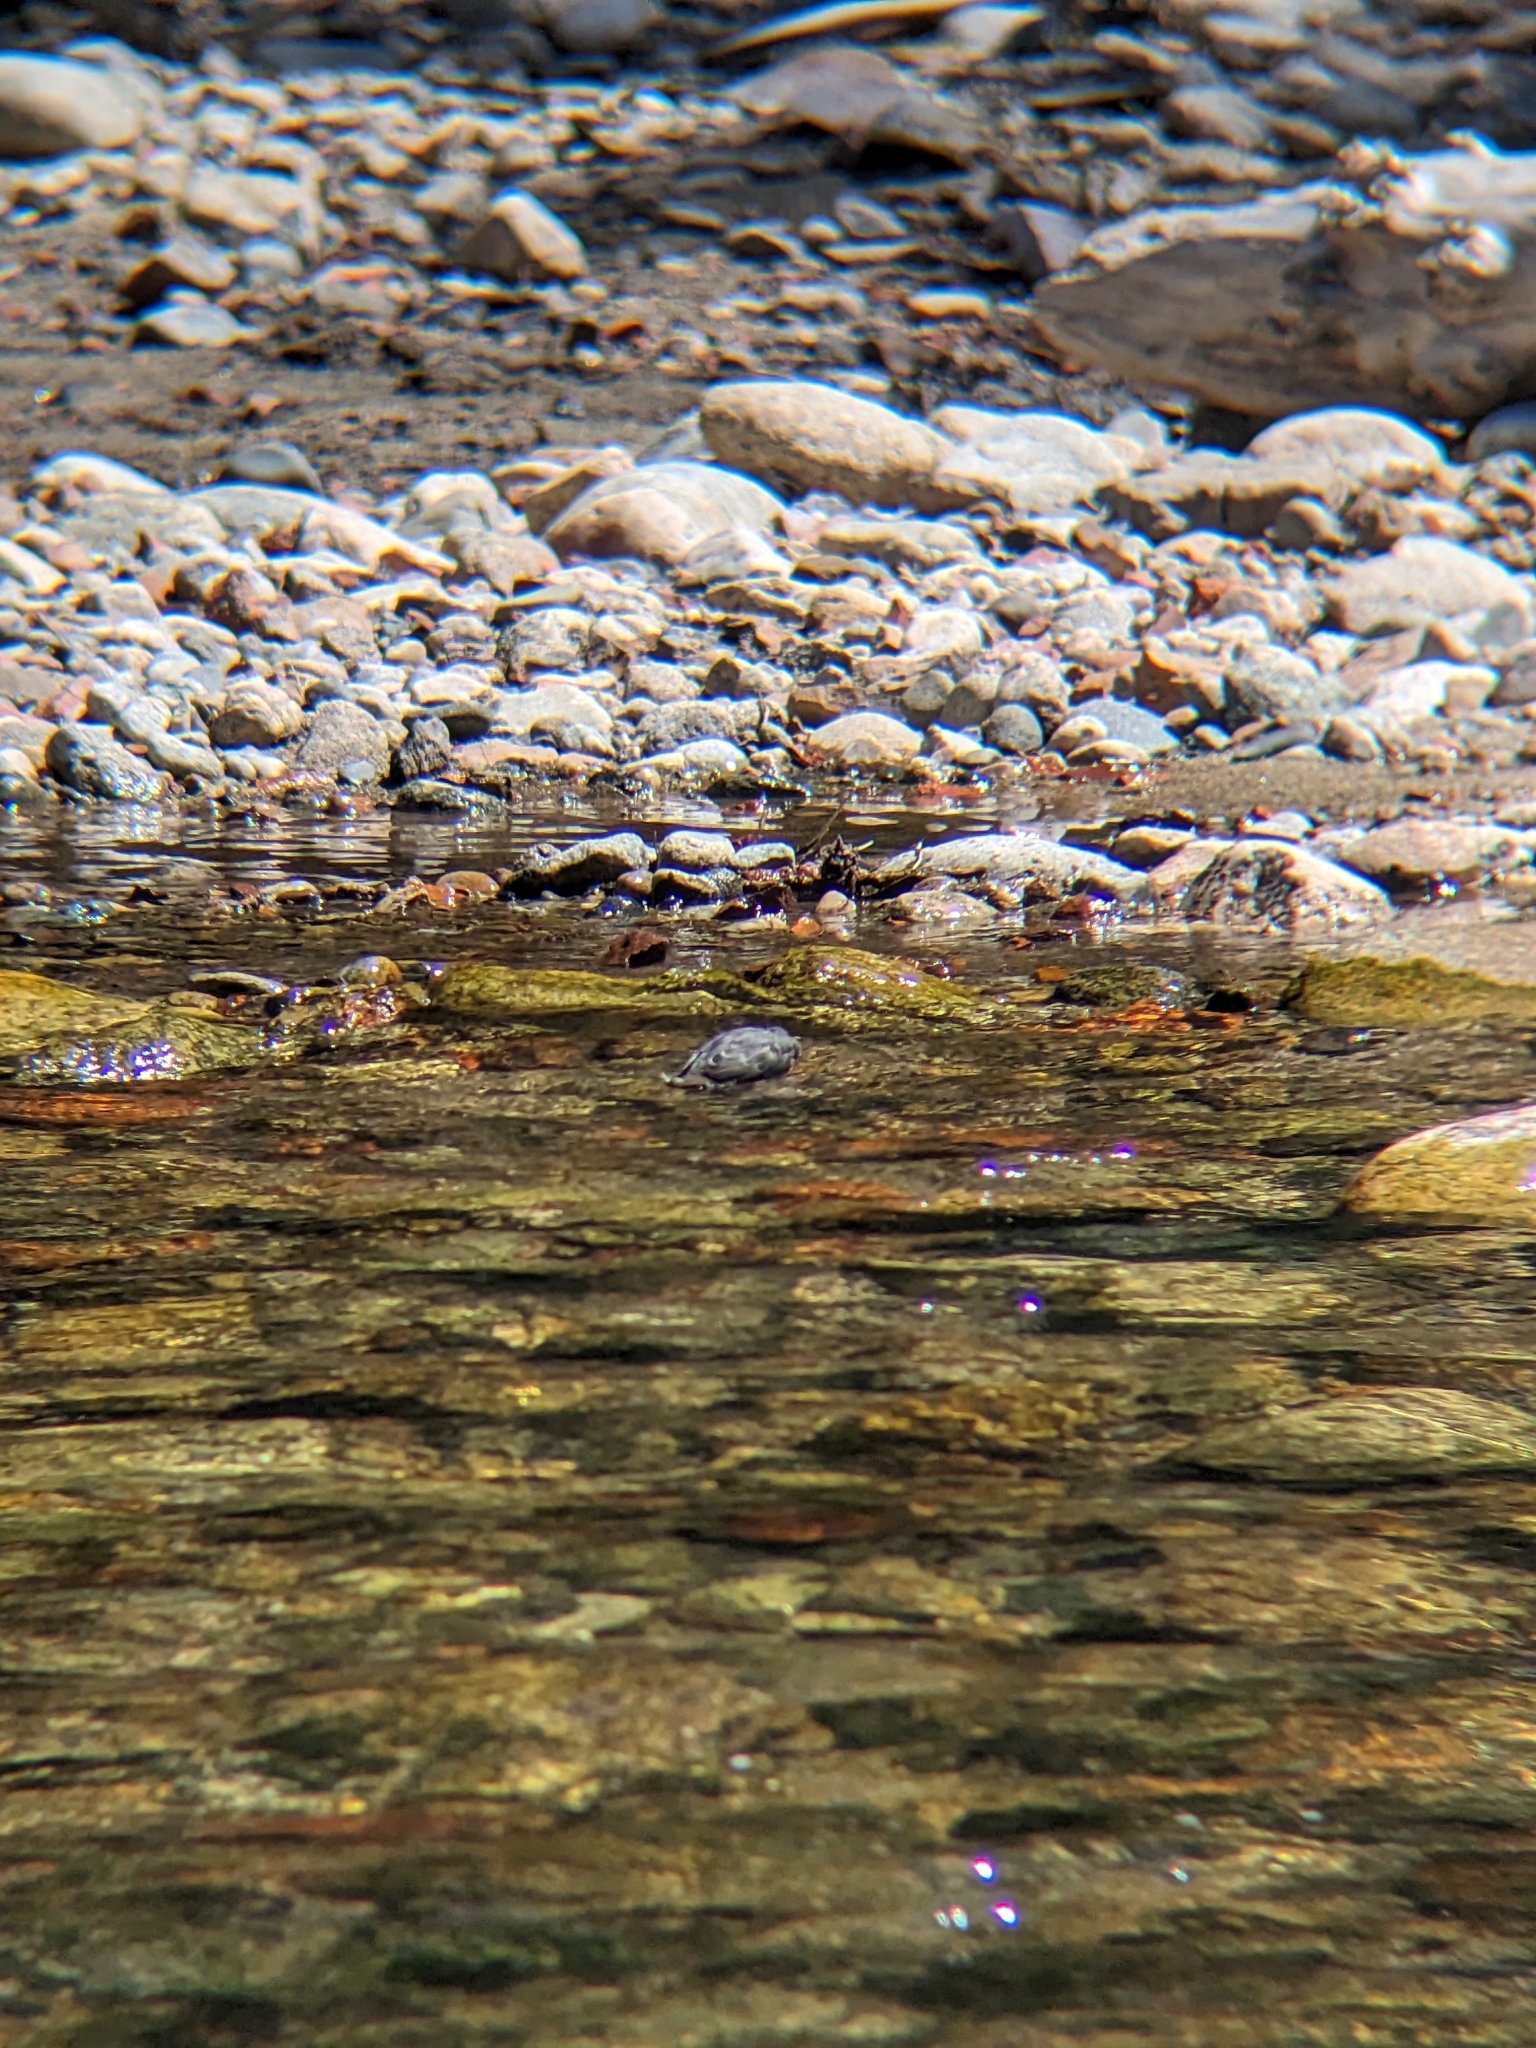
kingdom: Animalia
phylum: Chordata
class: Aves
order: Passeriformes
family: Cinclidae
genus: Cinclus
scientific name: Cinclus mexicanus
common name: American dipper
